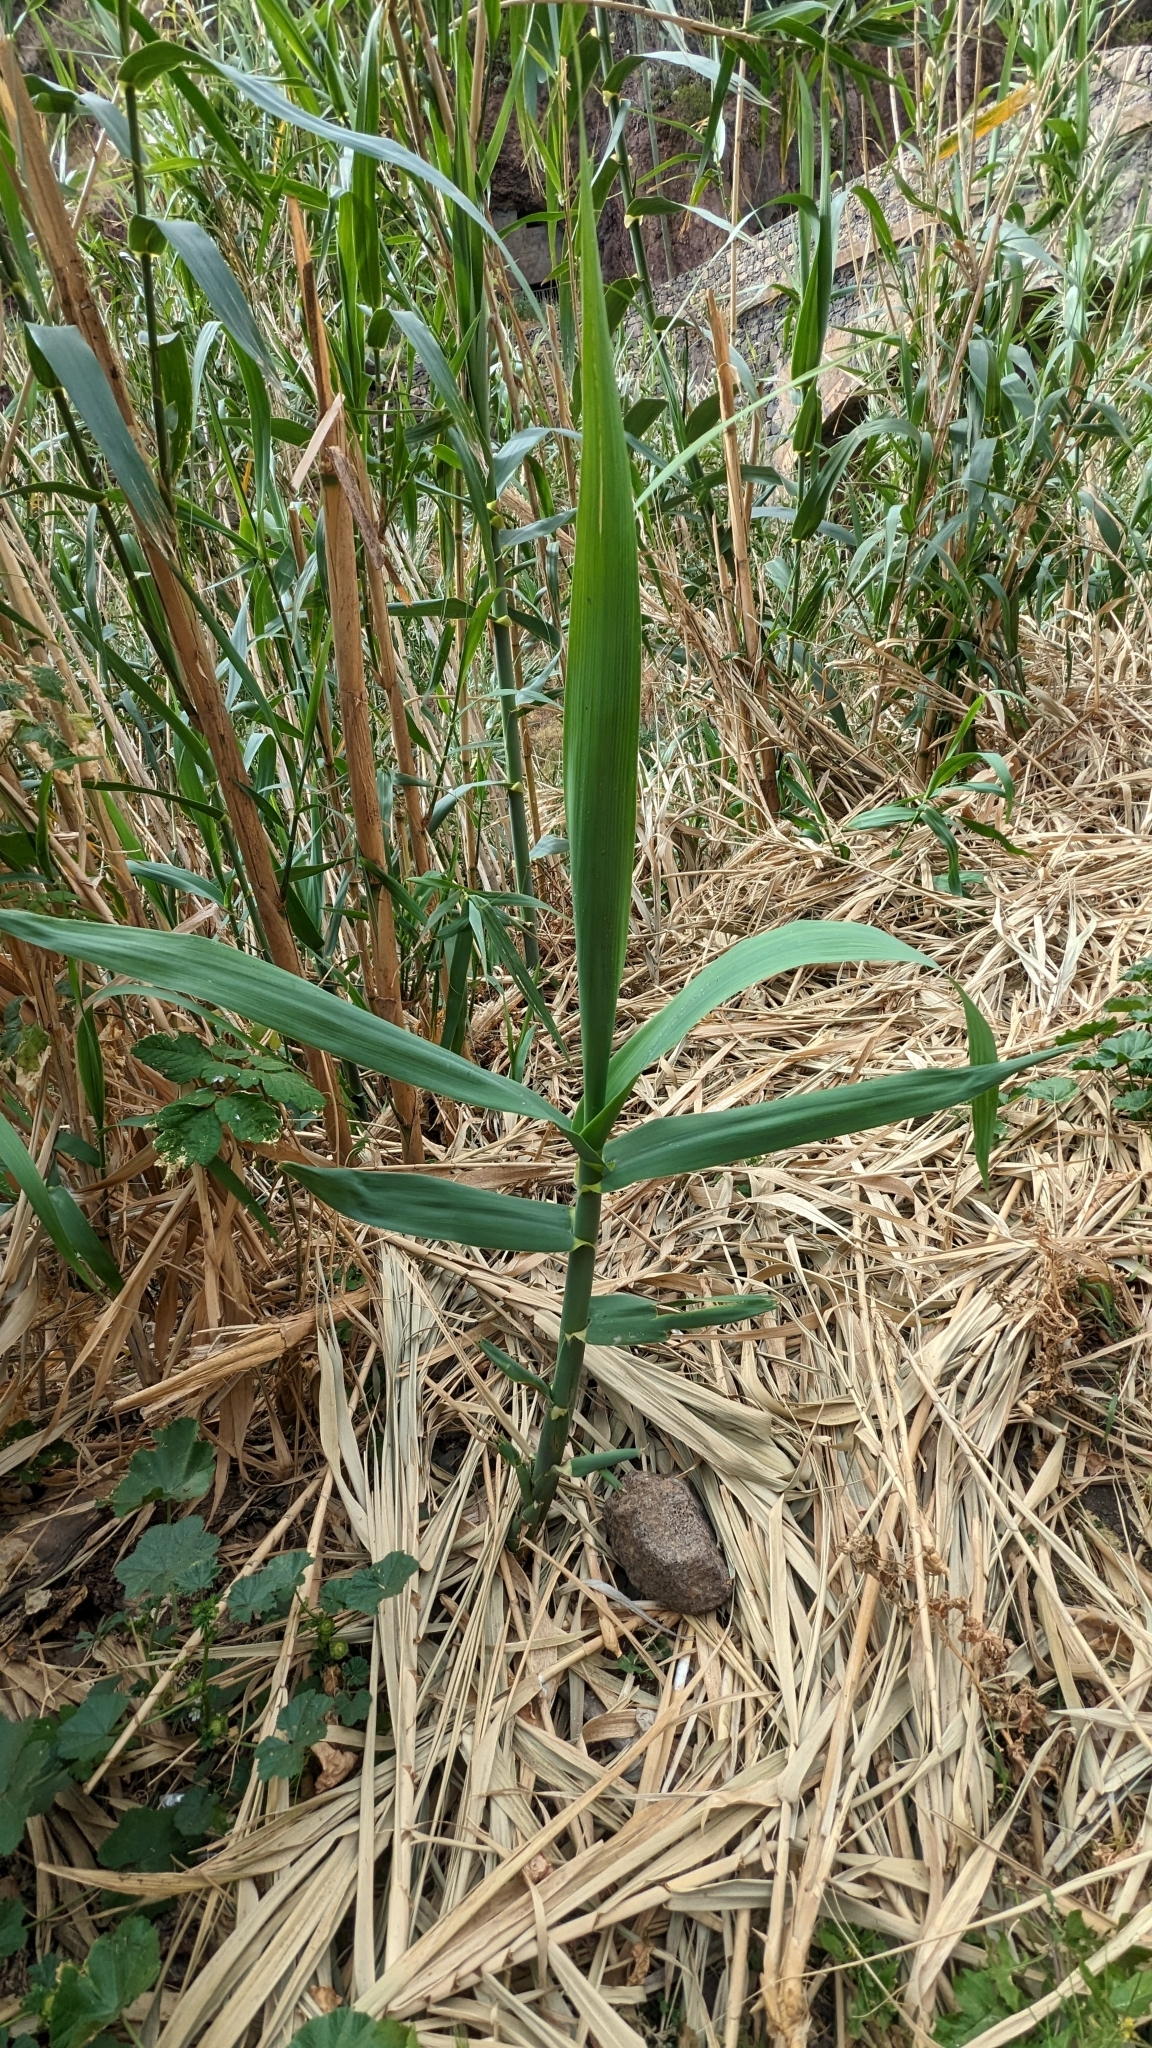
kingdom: Plantae
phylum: Tracheophyta
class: Liliopsida
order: Poales
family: Poaceae
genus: Arundo
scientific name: Arundo donax
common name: Giant reed
